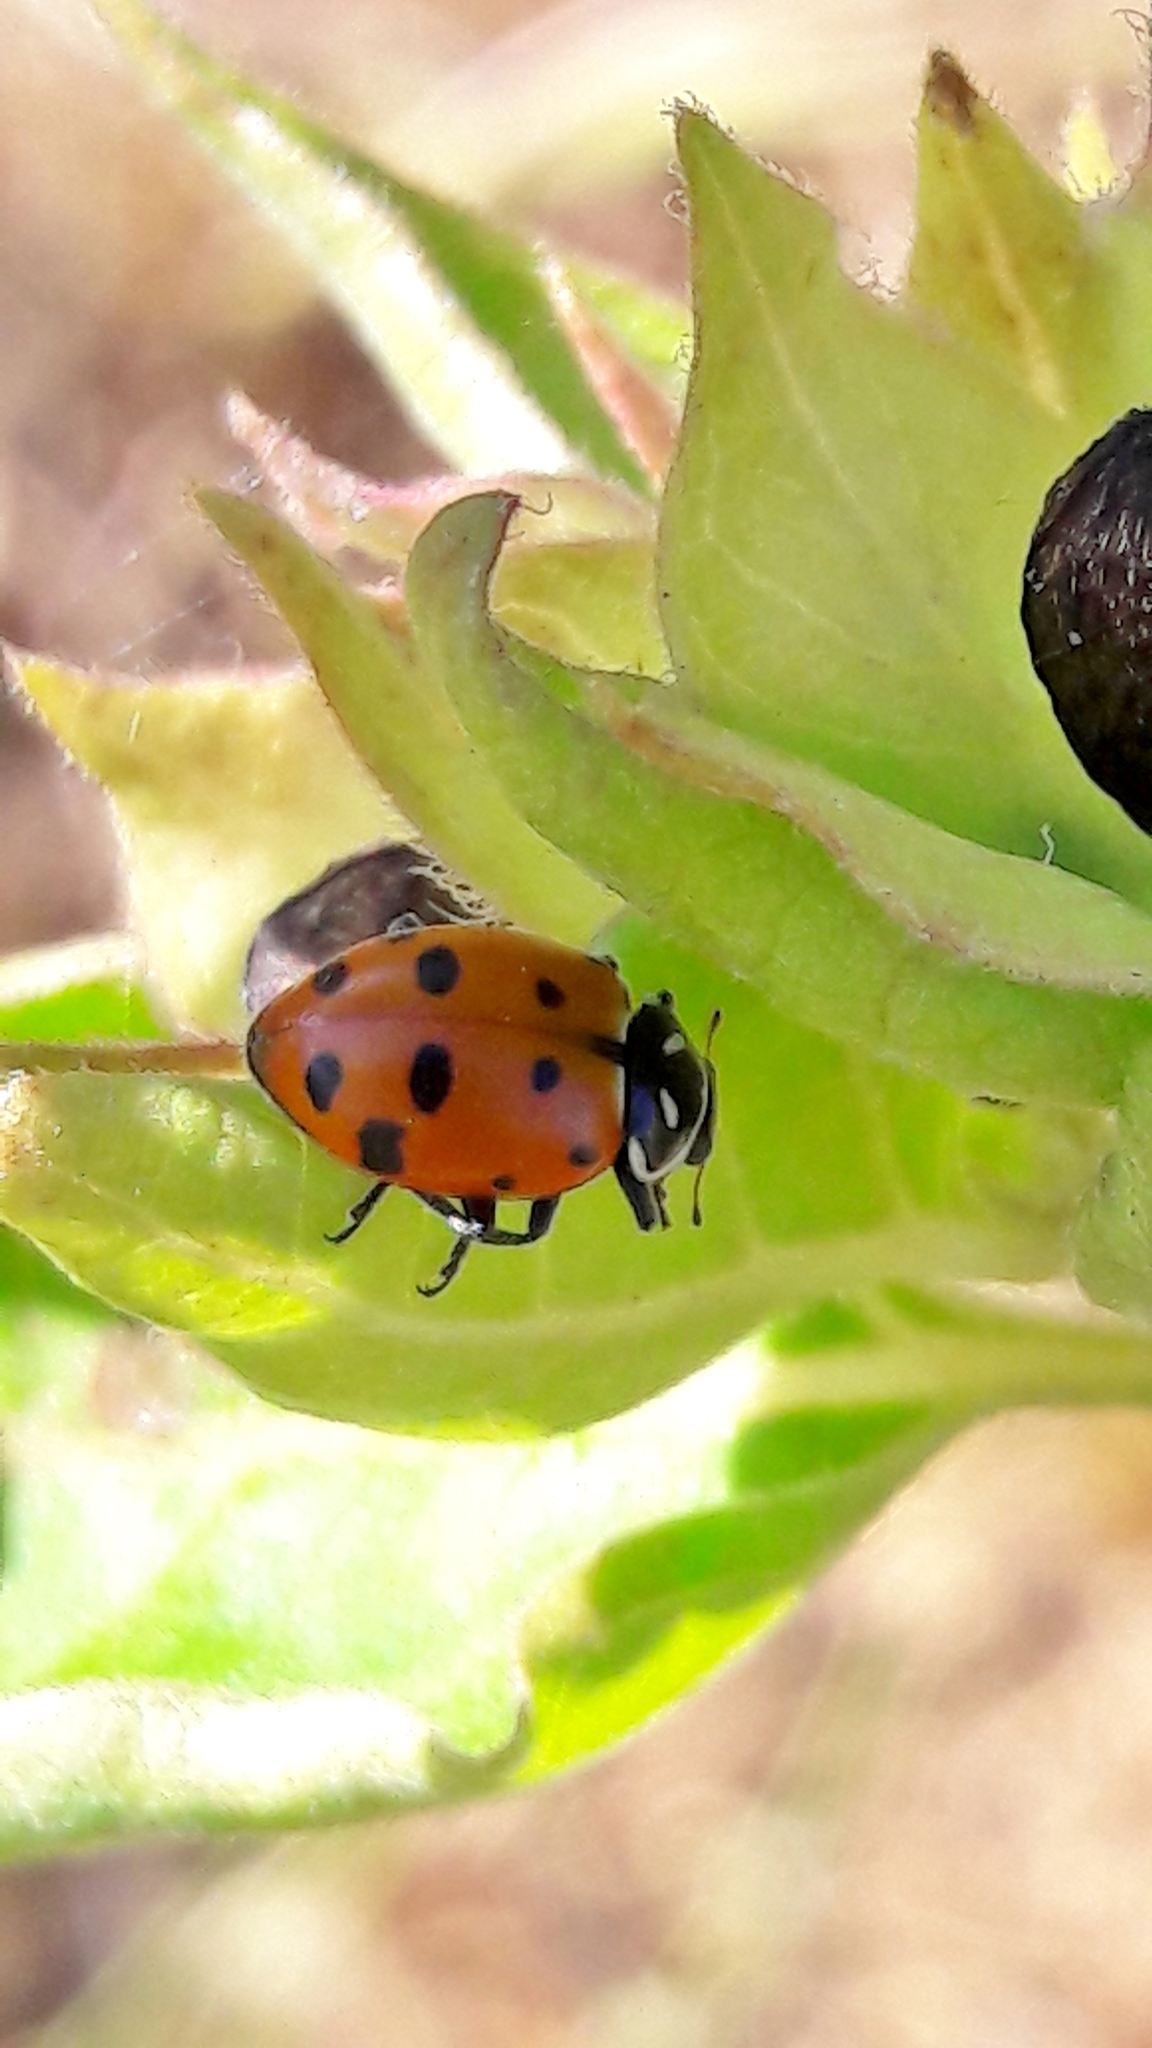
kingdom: Animalia
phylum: Arthropoda
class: Insecta
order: Coleoptera
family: Coccinellidae
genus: Hippodamia
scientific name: Hippodamia convergens
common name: Convergent lady beetle
